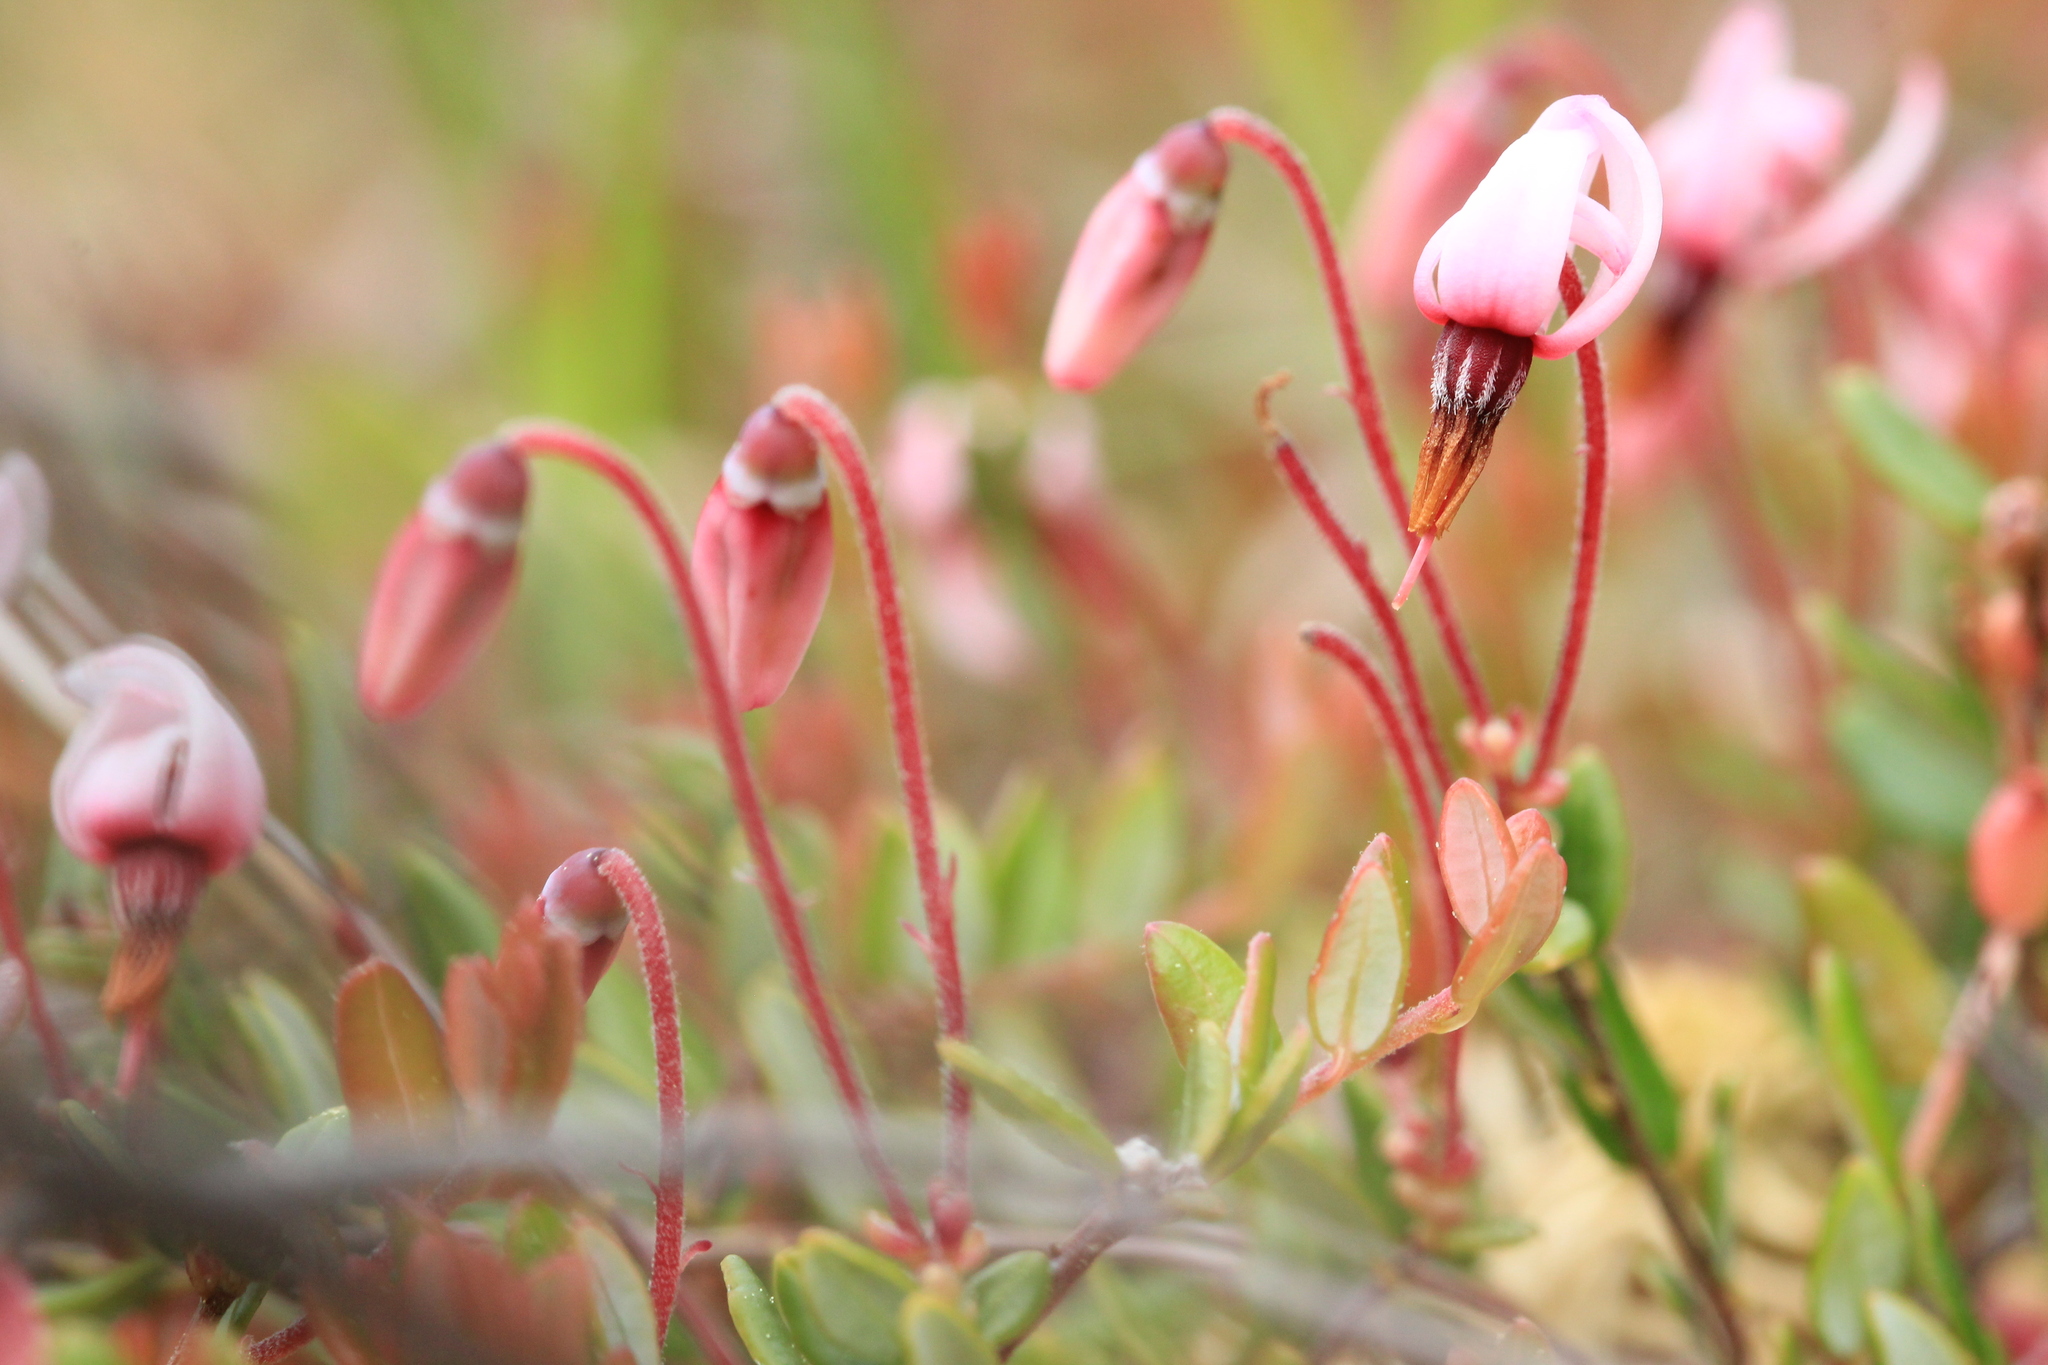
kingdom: Plantae
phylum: Tracheophyta
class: Magnoliopsida
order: Ericales
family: Ericaceae
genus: Vaccinium
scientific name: Vaccinium oxycoccos
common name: Cranberry
